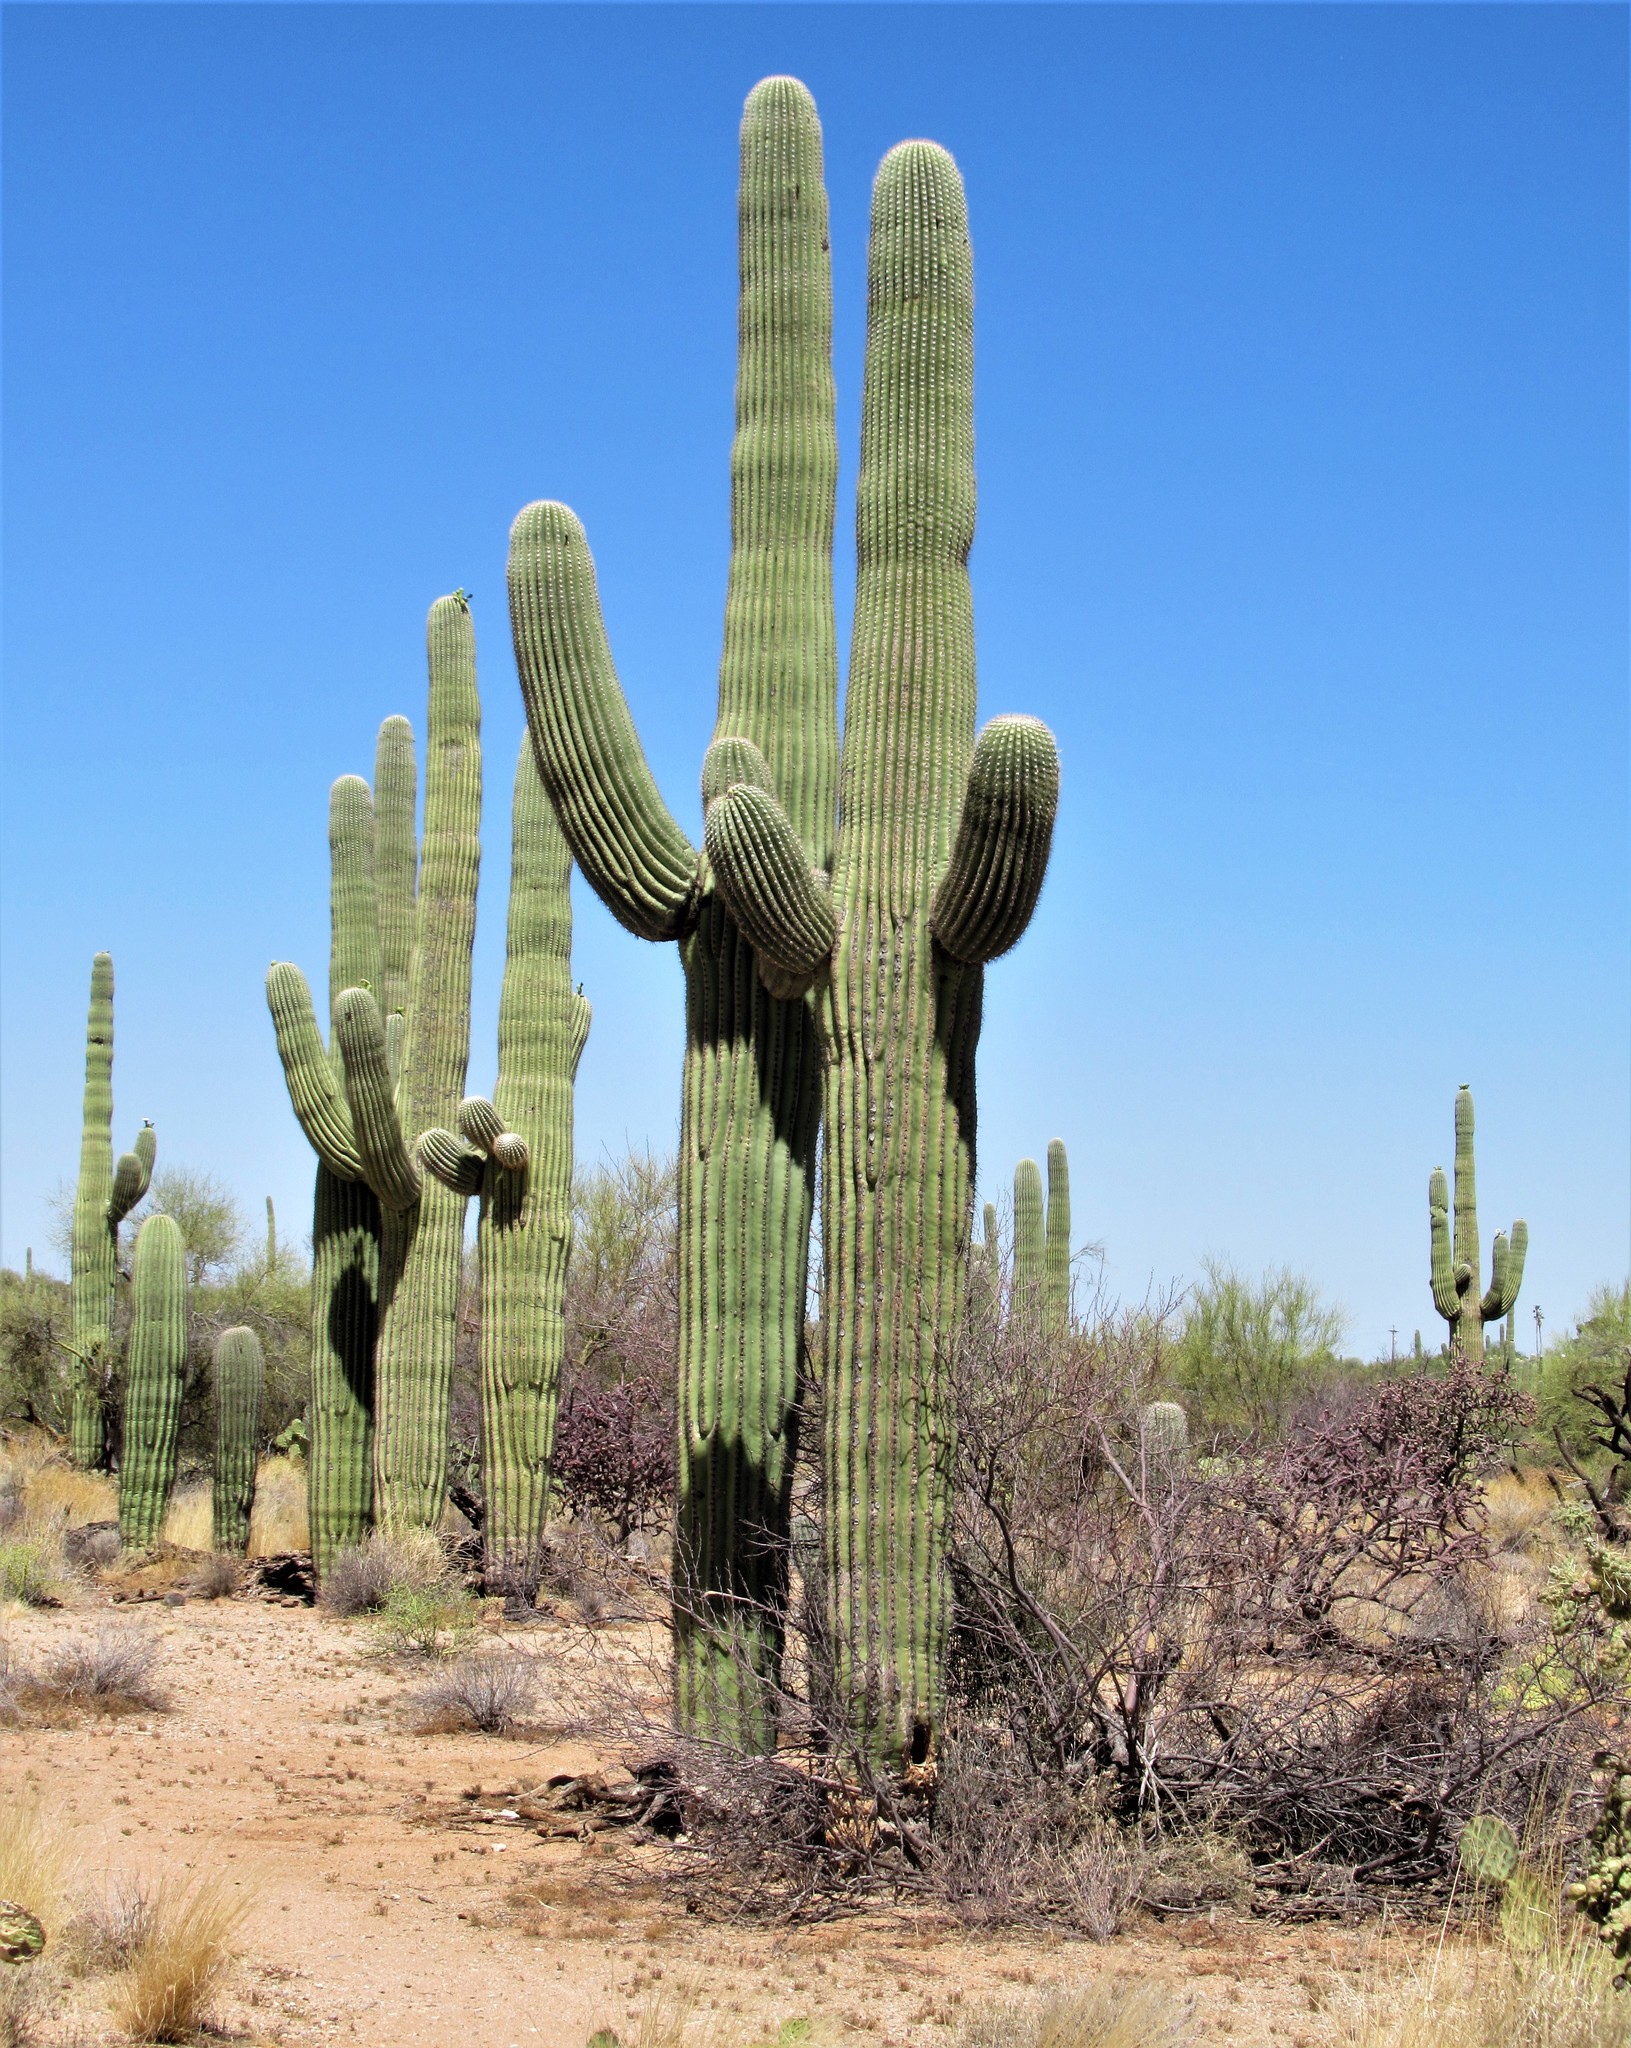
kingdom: Plantae
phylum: Tracheophyta
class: Magnoliopsida
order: Caryophyllales
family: Cactaceae
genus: Carnegiea
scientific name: Carnegiea gigantea
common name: Saguaro
